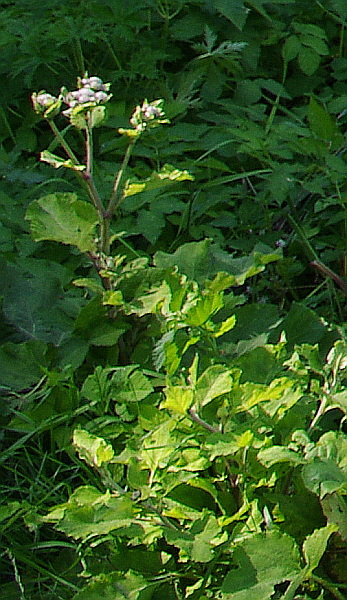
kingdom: Plantae
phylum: Tracheophyta
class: Magnoliopsida
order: Asterales
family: Asteraceae
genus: Arctium
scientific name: Arctium tomentosum
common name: Woolly burdock
